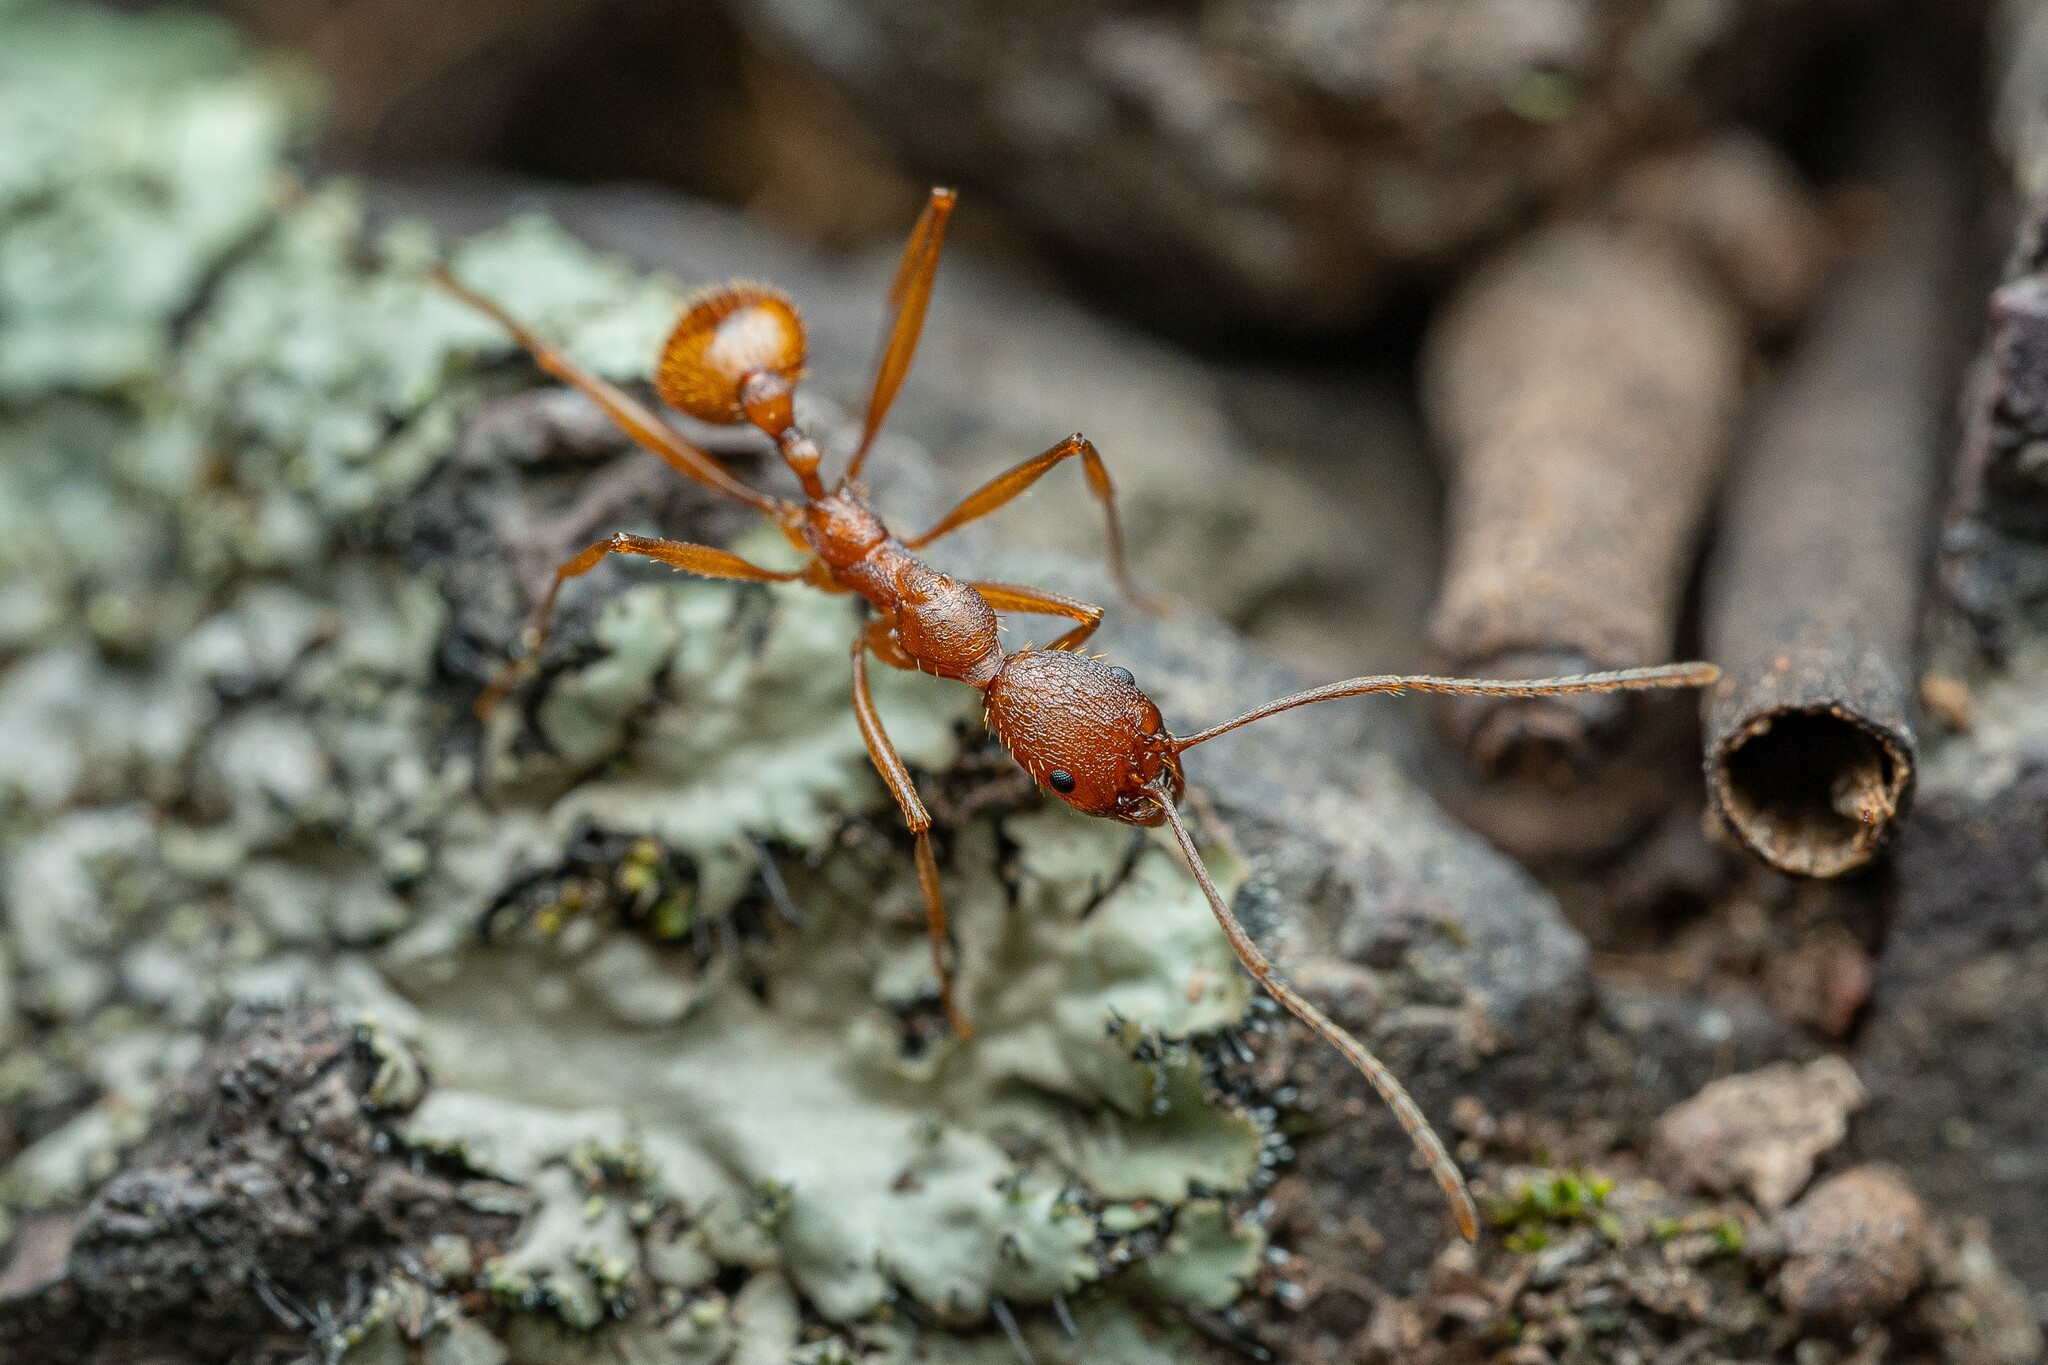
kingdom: Animalia
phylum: Arthropoda
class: Insecta
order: Hymenoptera
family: Formicidae
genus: Aphaenogaster
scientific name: Aphaenogaster huachucana
